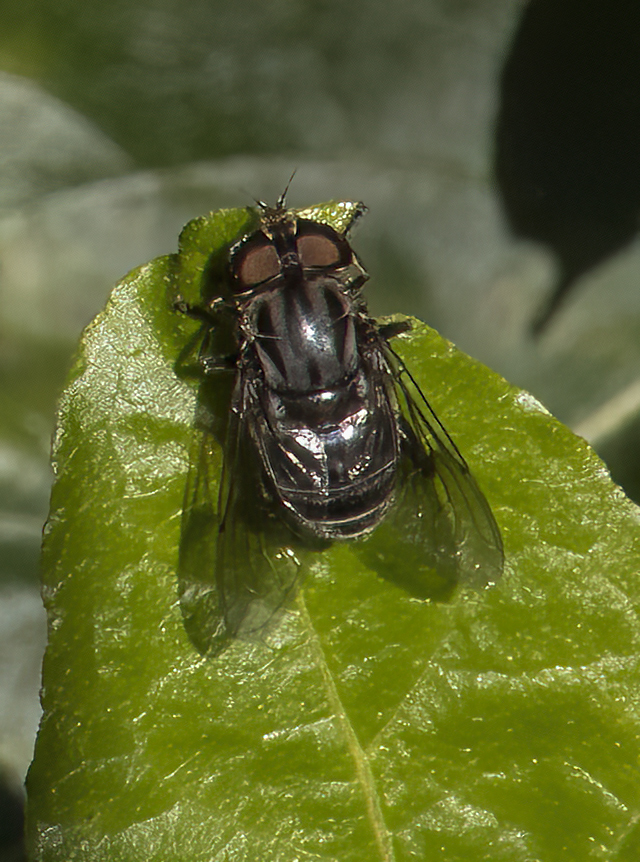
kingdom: Animalia
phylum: Arthropoda
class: Insecta
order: Diptera
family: Syrphidae
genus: Palpada
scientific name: Palpada furcata
